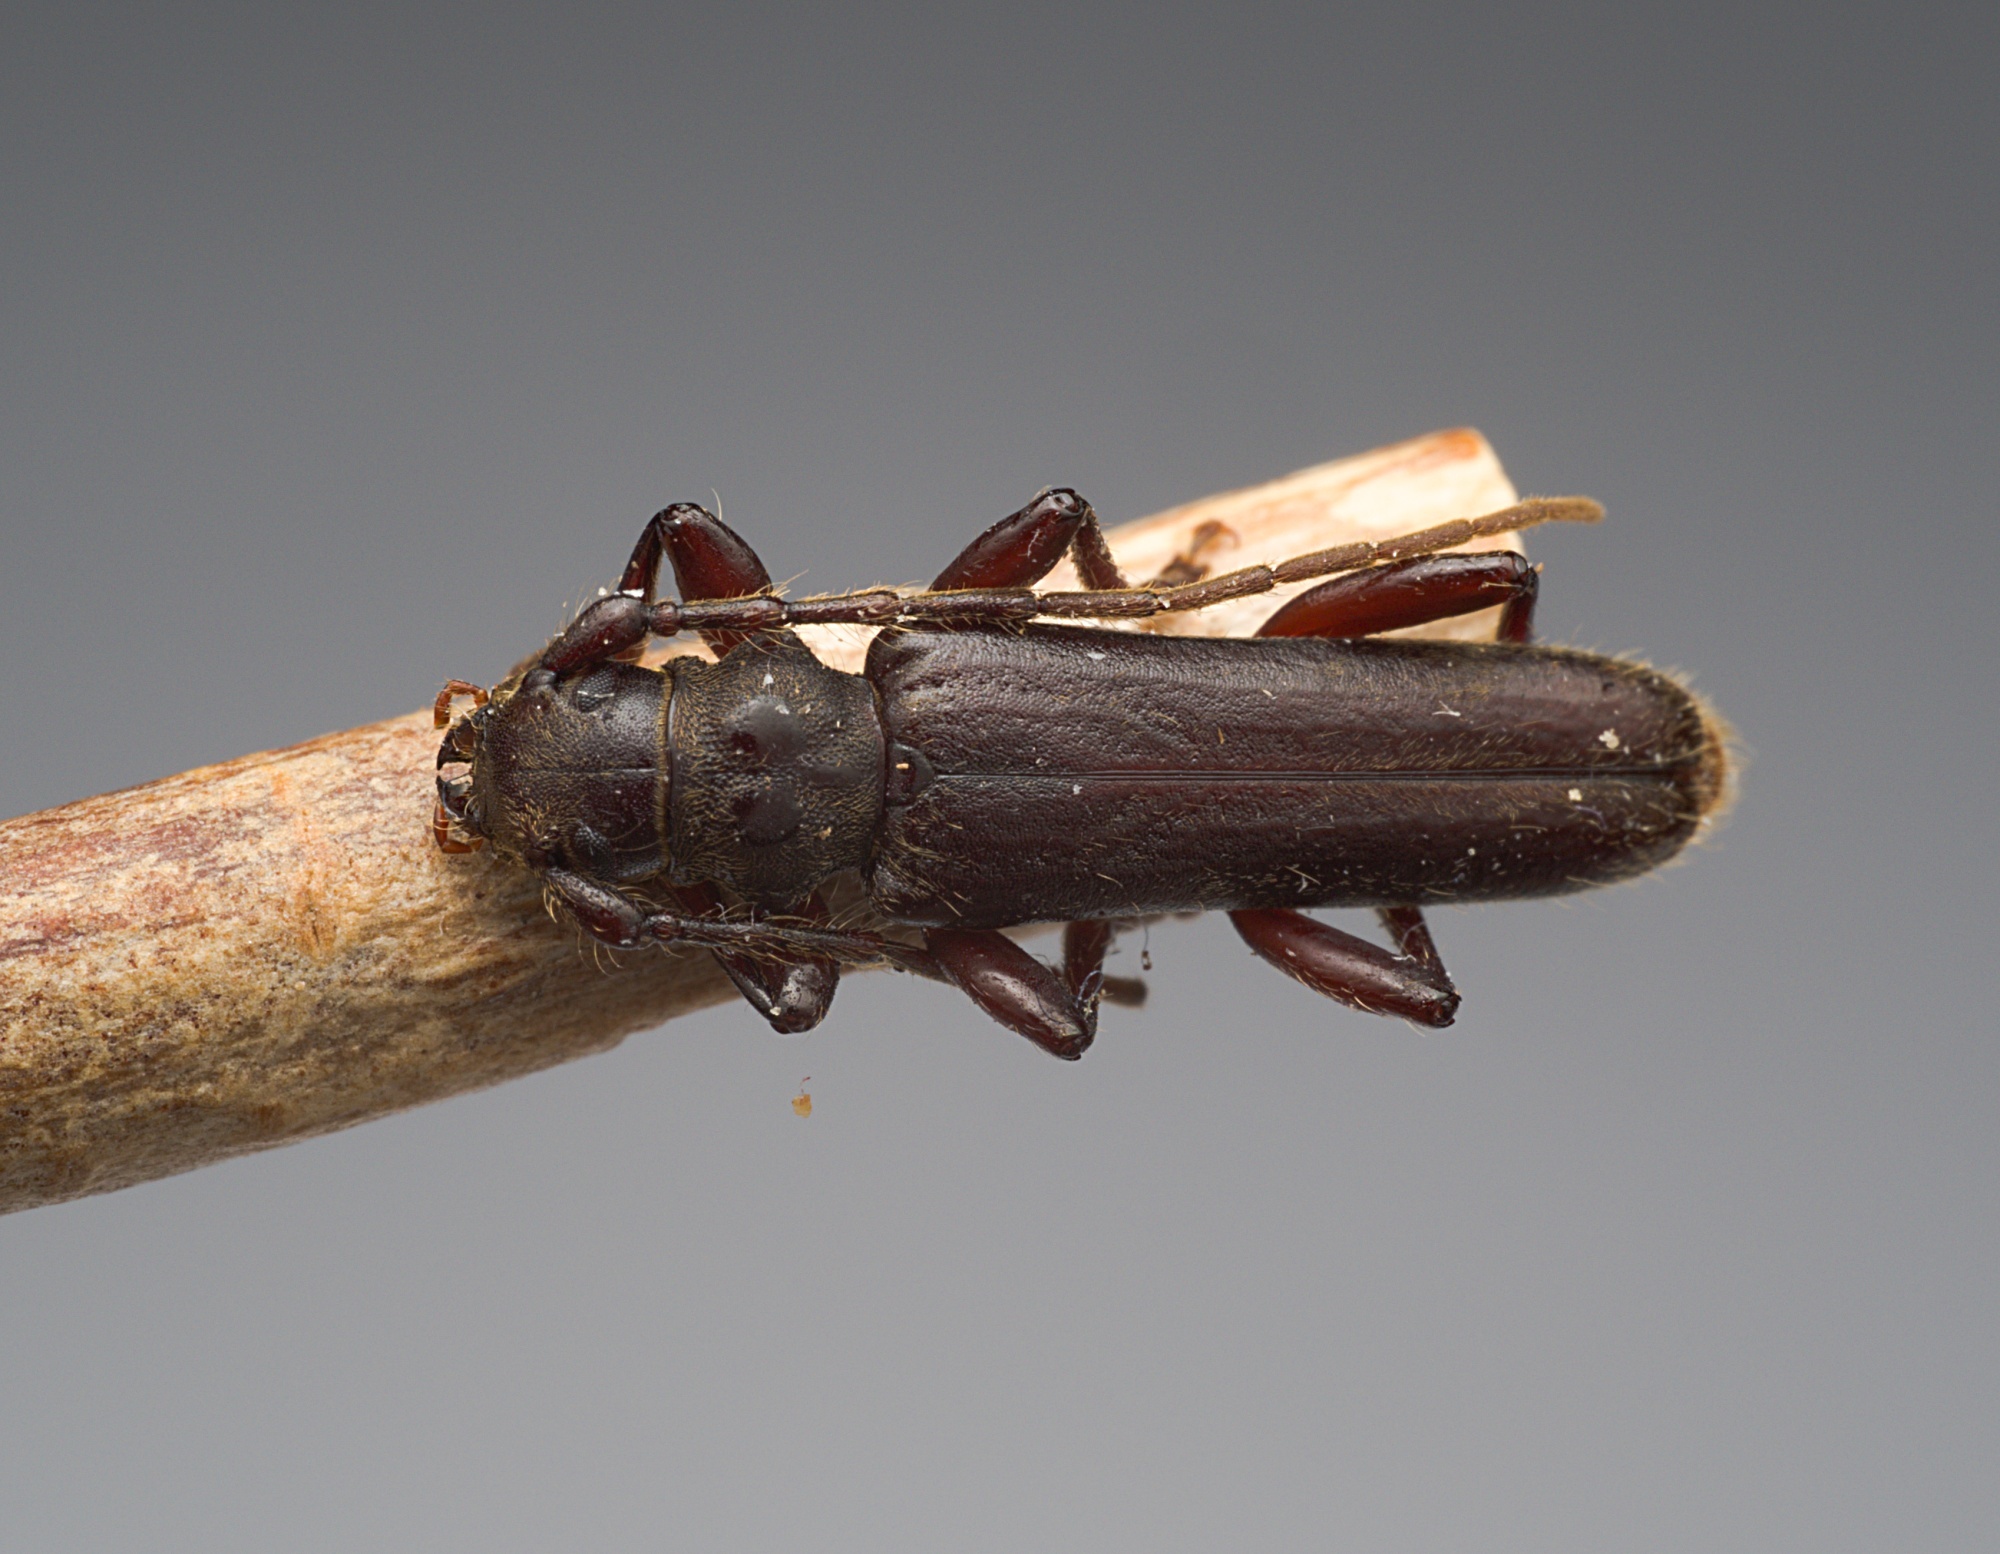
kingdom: Animalia
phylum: Arthropoda
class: Insecta
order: Coleoptera
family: Cerambycidae
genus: Ambeodontus
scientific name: Ambeodontus tristis
